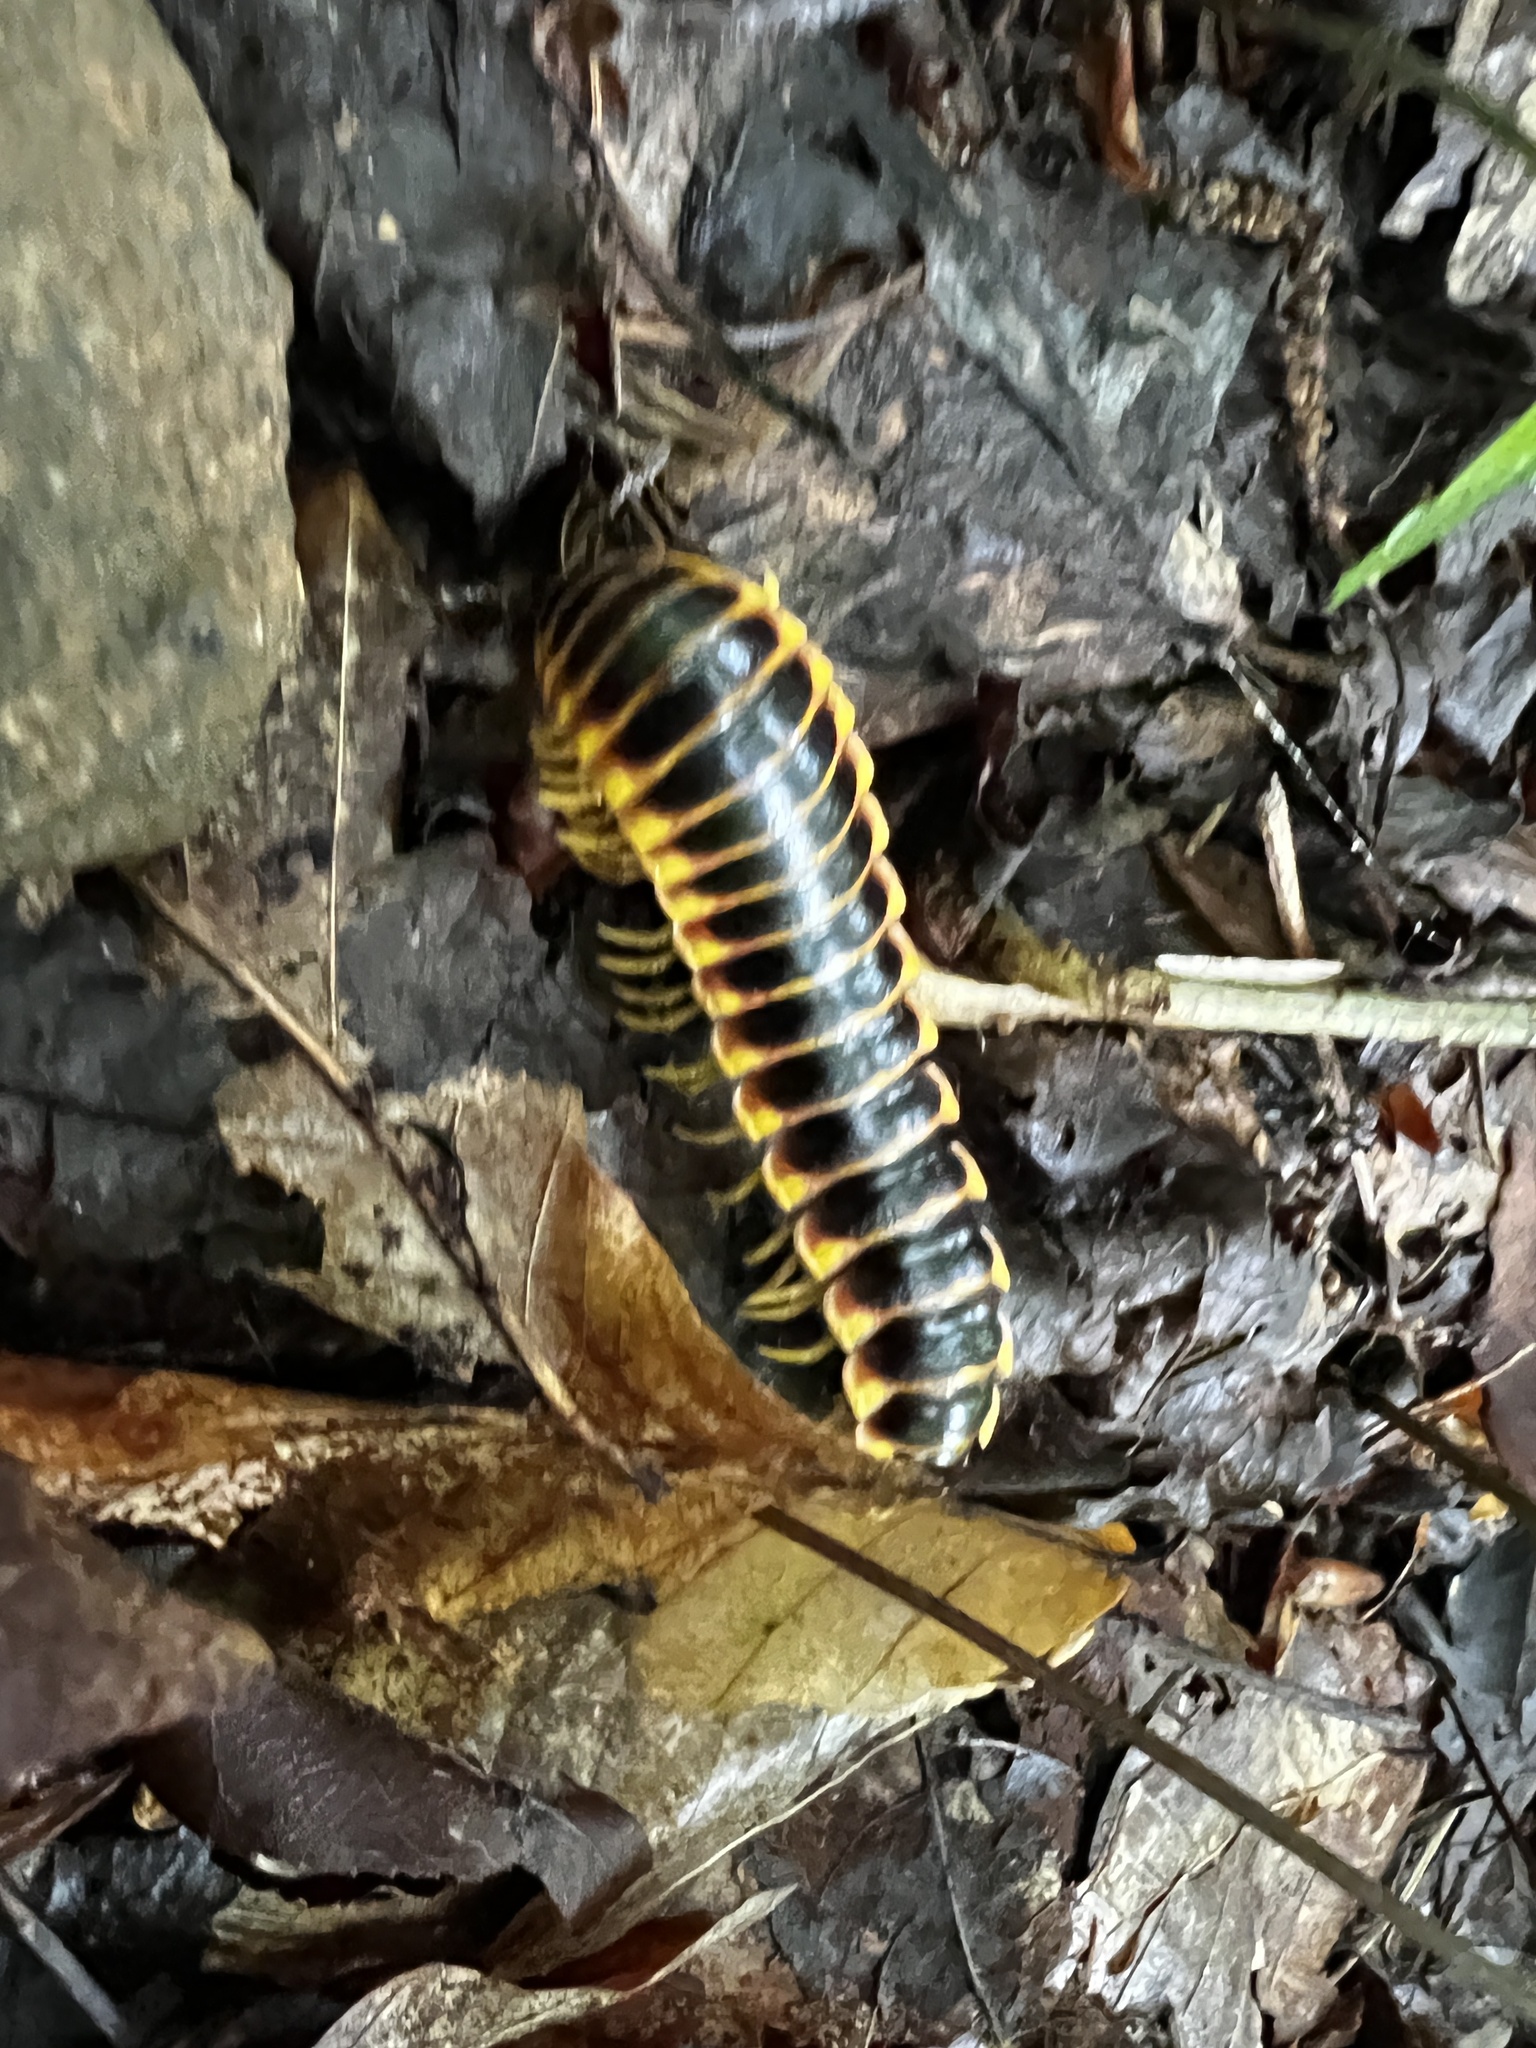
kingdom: Animalia
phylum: Arthropoda
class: Diplopoda
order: Polydesmida
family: Xystodesmidae
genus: Apheloria
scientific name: Apheloria virginiensis
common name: Black-and-gold flat millipede
